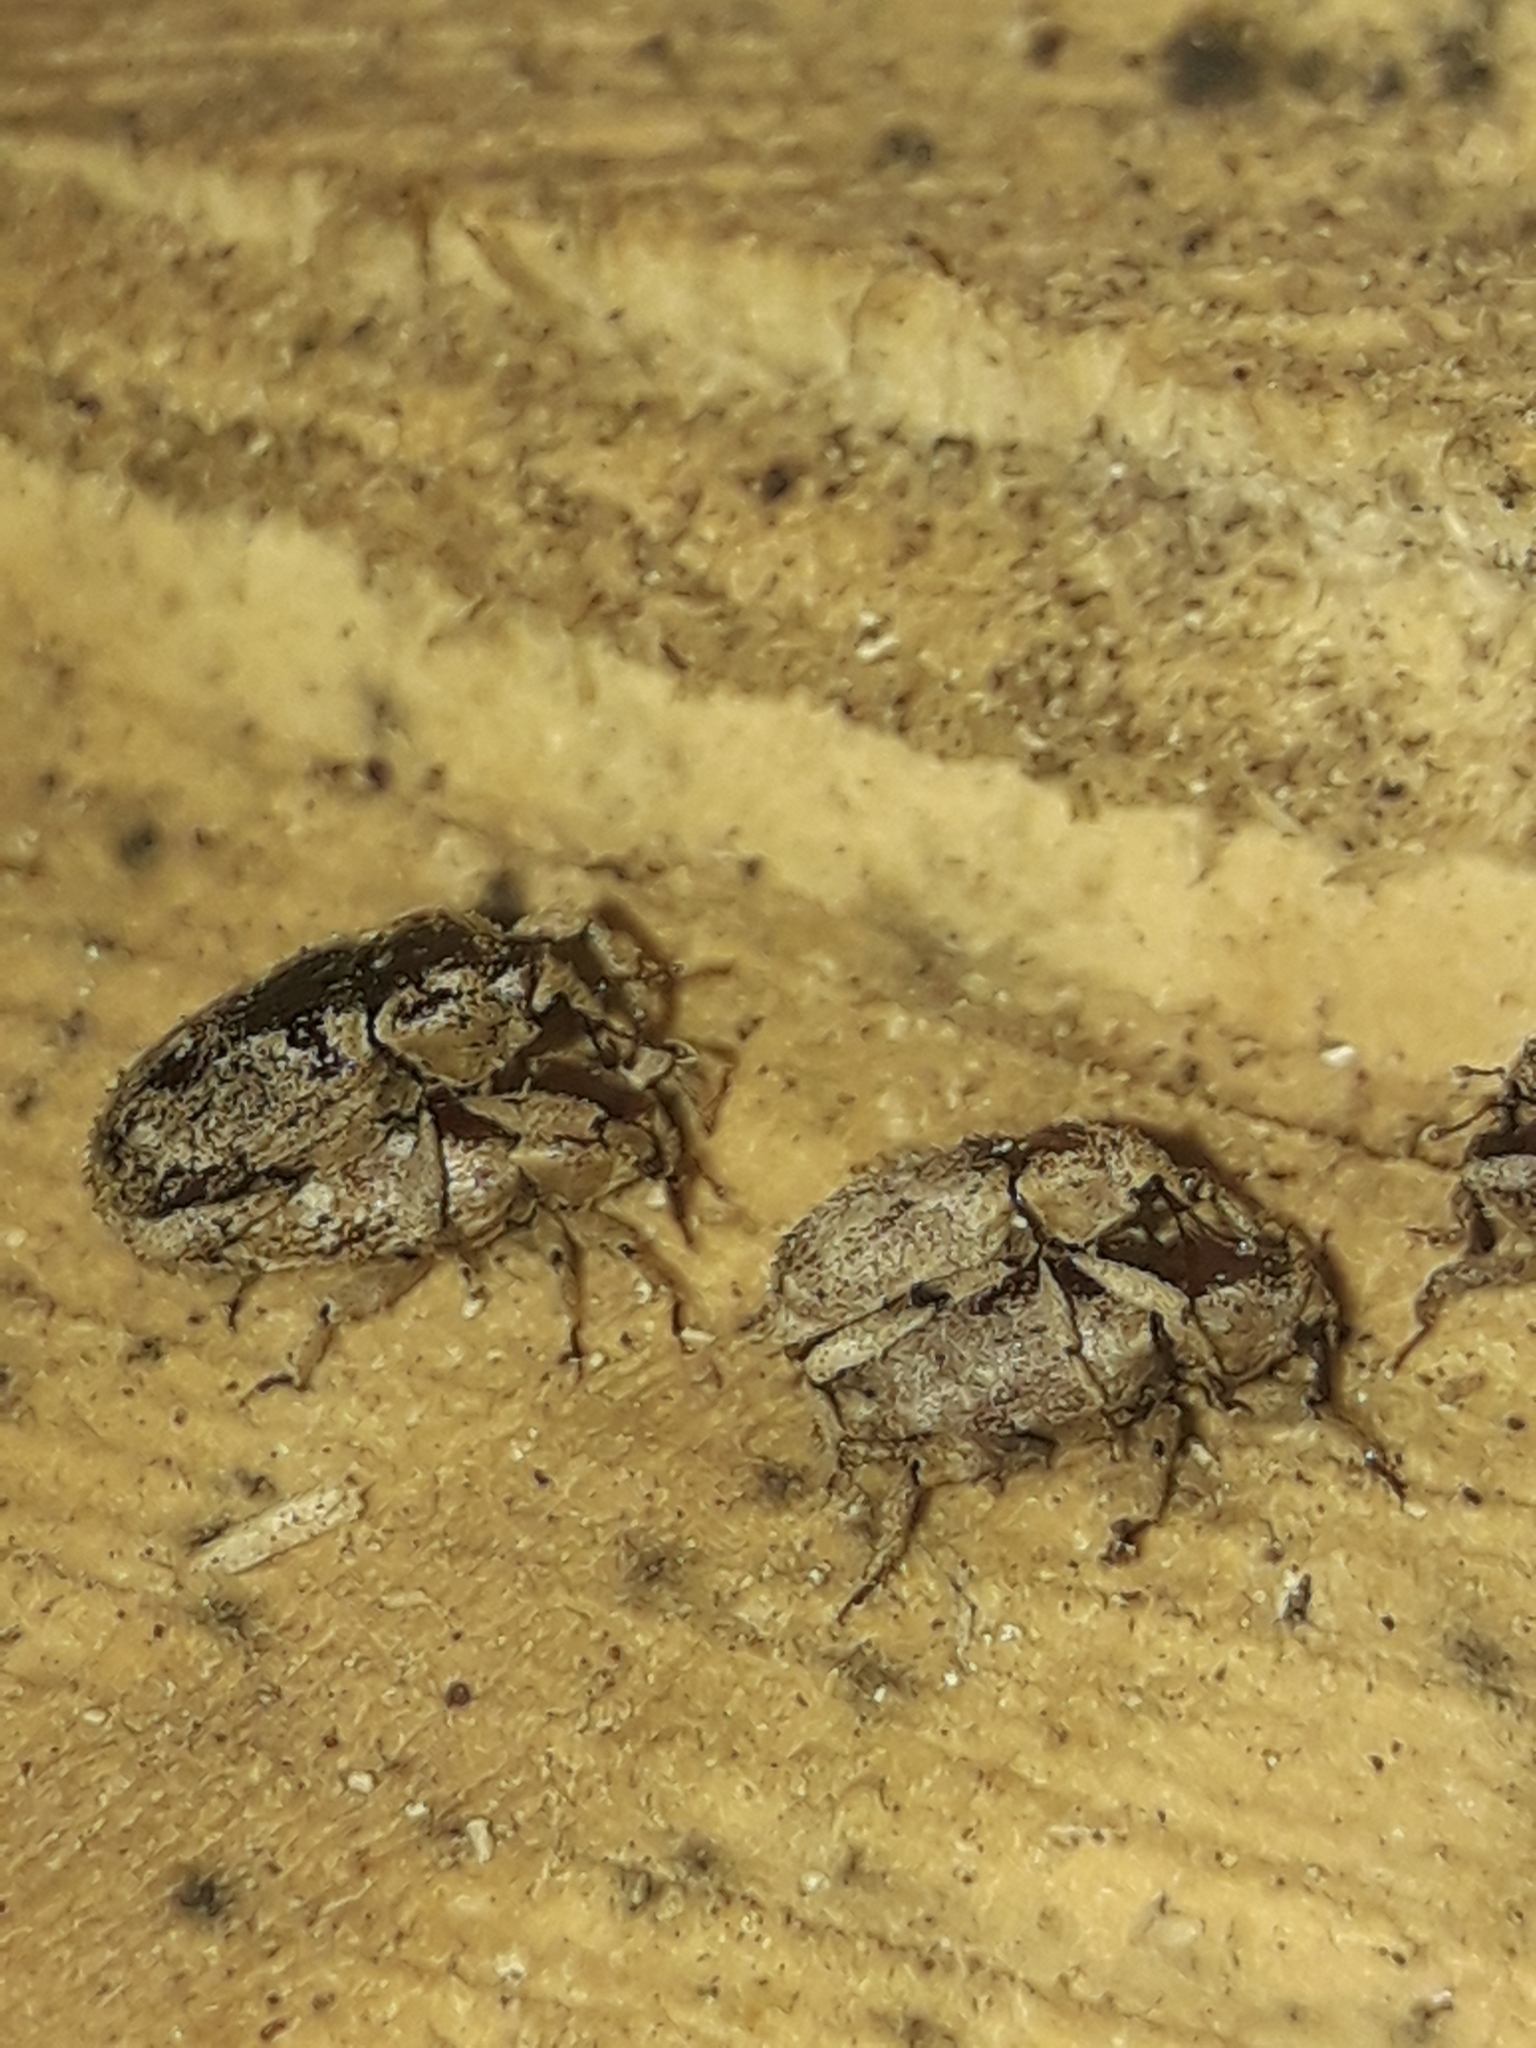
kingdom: Animalia
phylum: Arthropoda
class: Insecta
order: Coleoptera
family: Curculionidae
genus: Mitrastethus
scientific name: Mitrastethus baridioides
